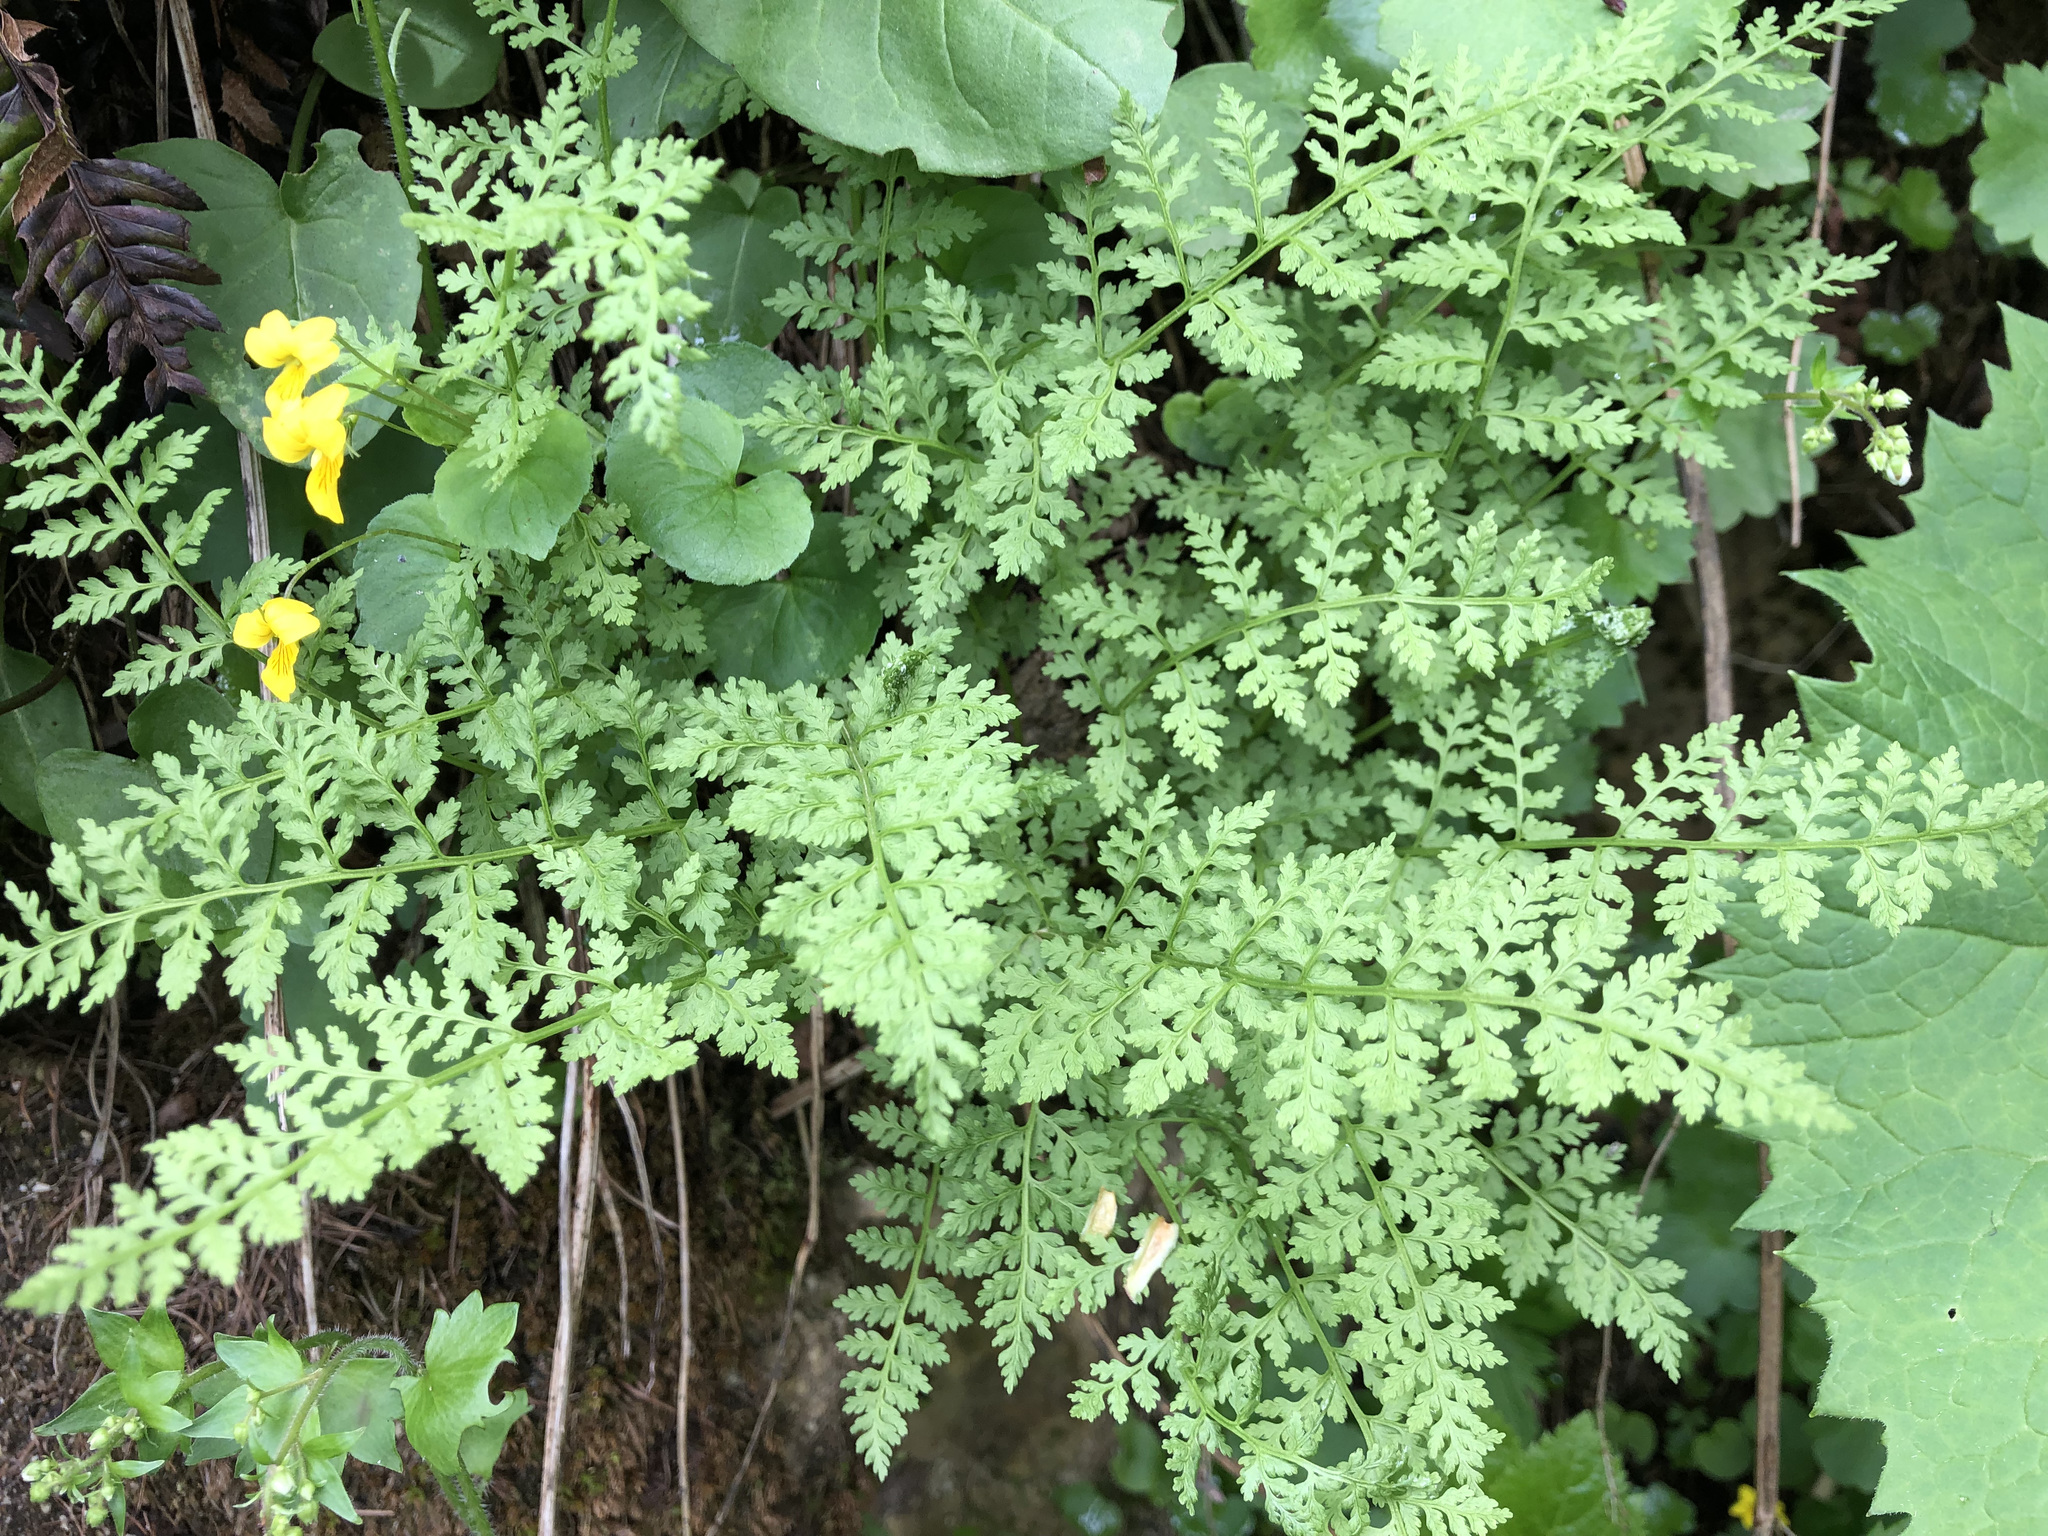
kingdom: Plantae
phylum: Tracheophyta
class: Polypodiopsida
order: Polypodiales
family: Cystopteridaceae
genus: Cystopteris
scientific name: Cystopteris fragilis
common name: Brittle bladder fern
